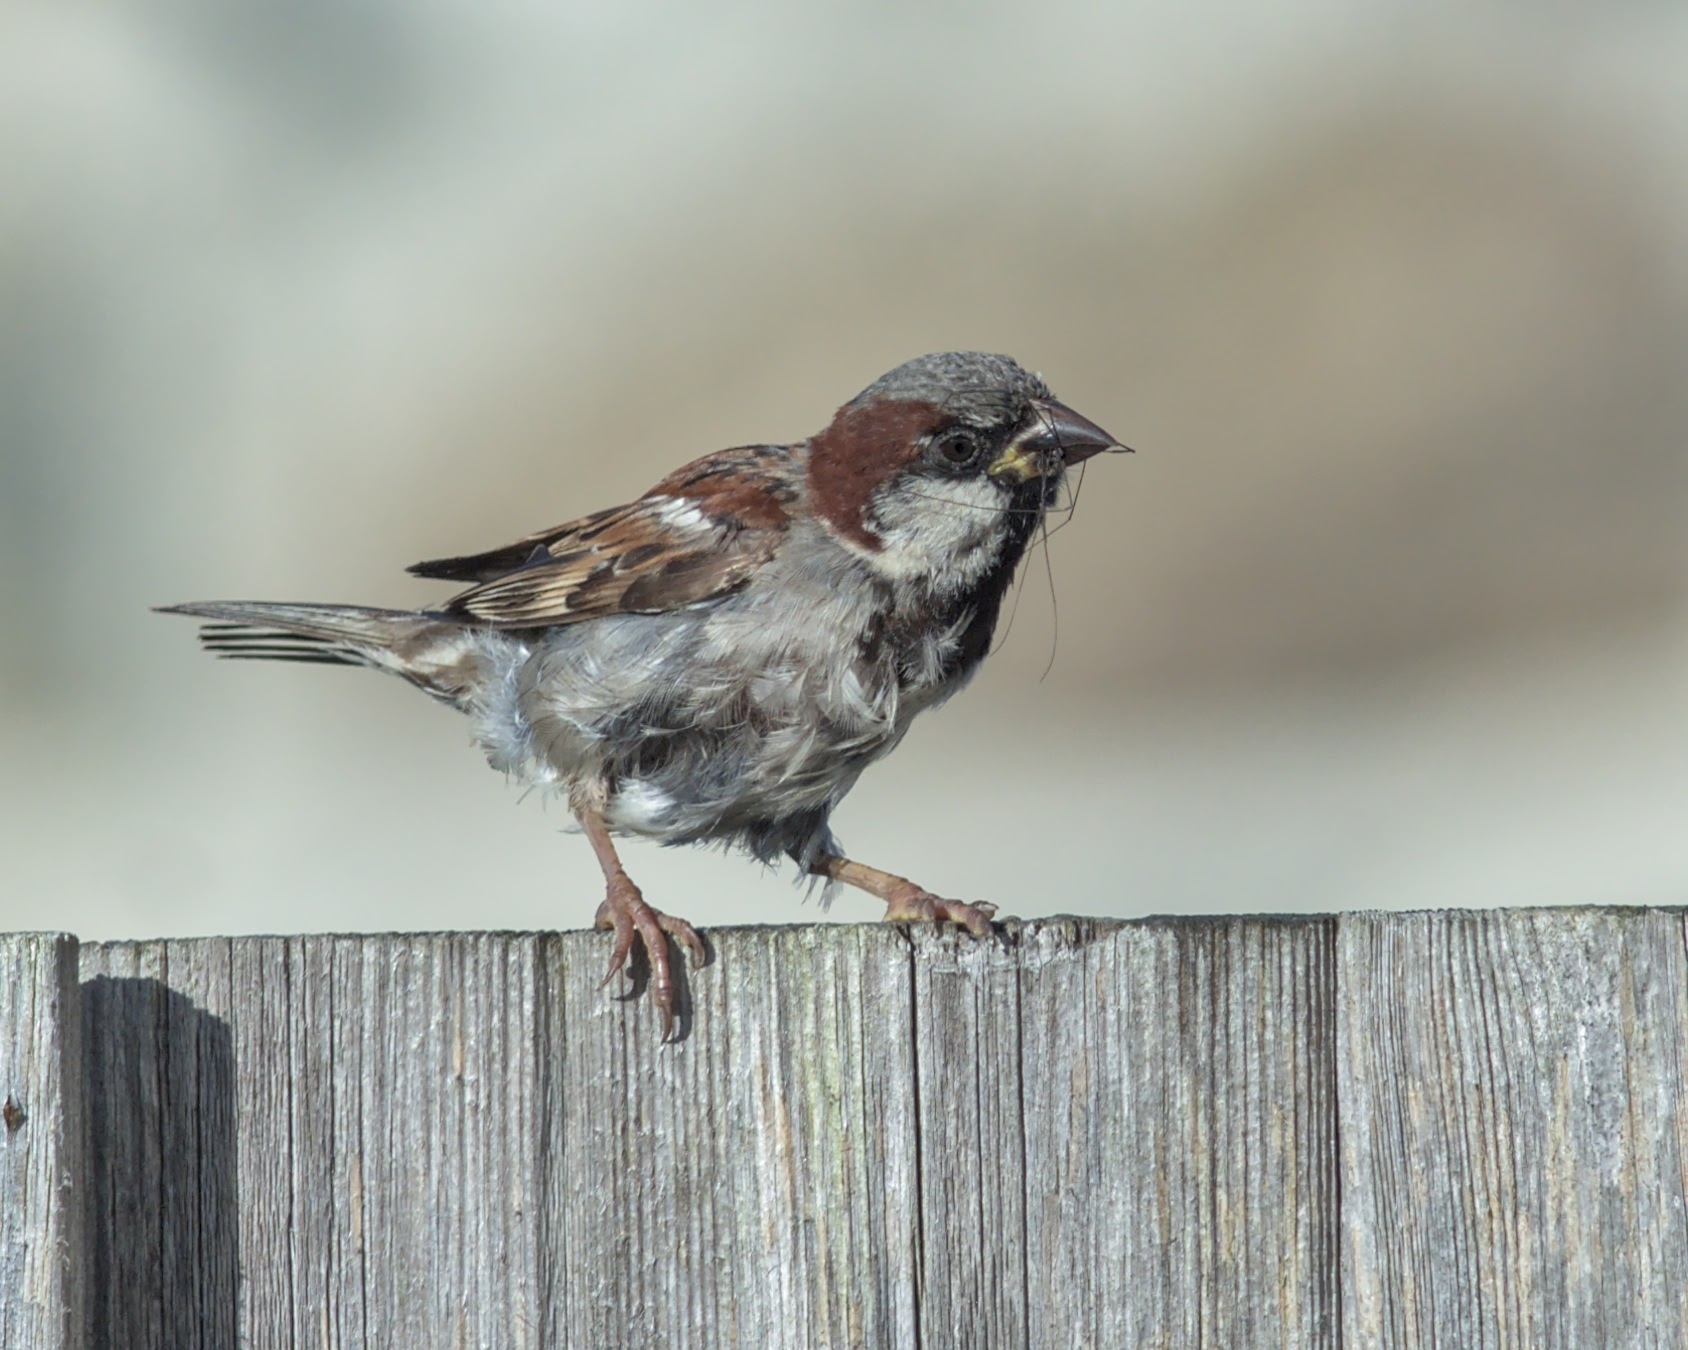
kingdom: Animalia
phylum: Chordata
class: Aves
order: Passeriformes
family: Passeridae
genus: Passer
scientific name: Passer domesticus
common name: House sparrow
